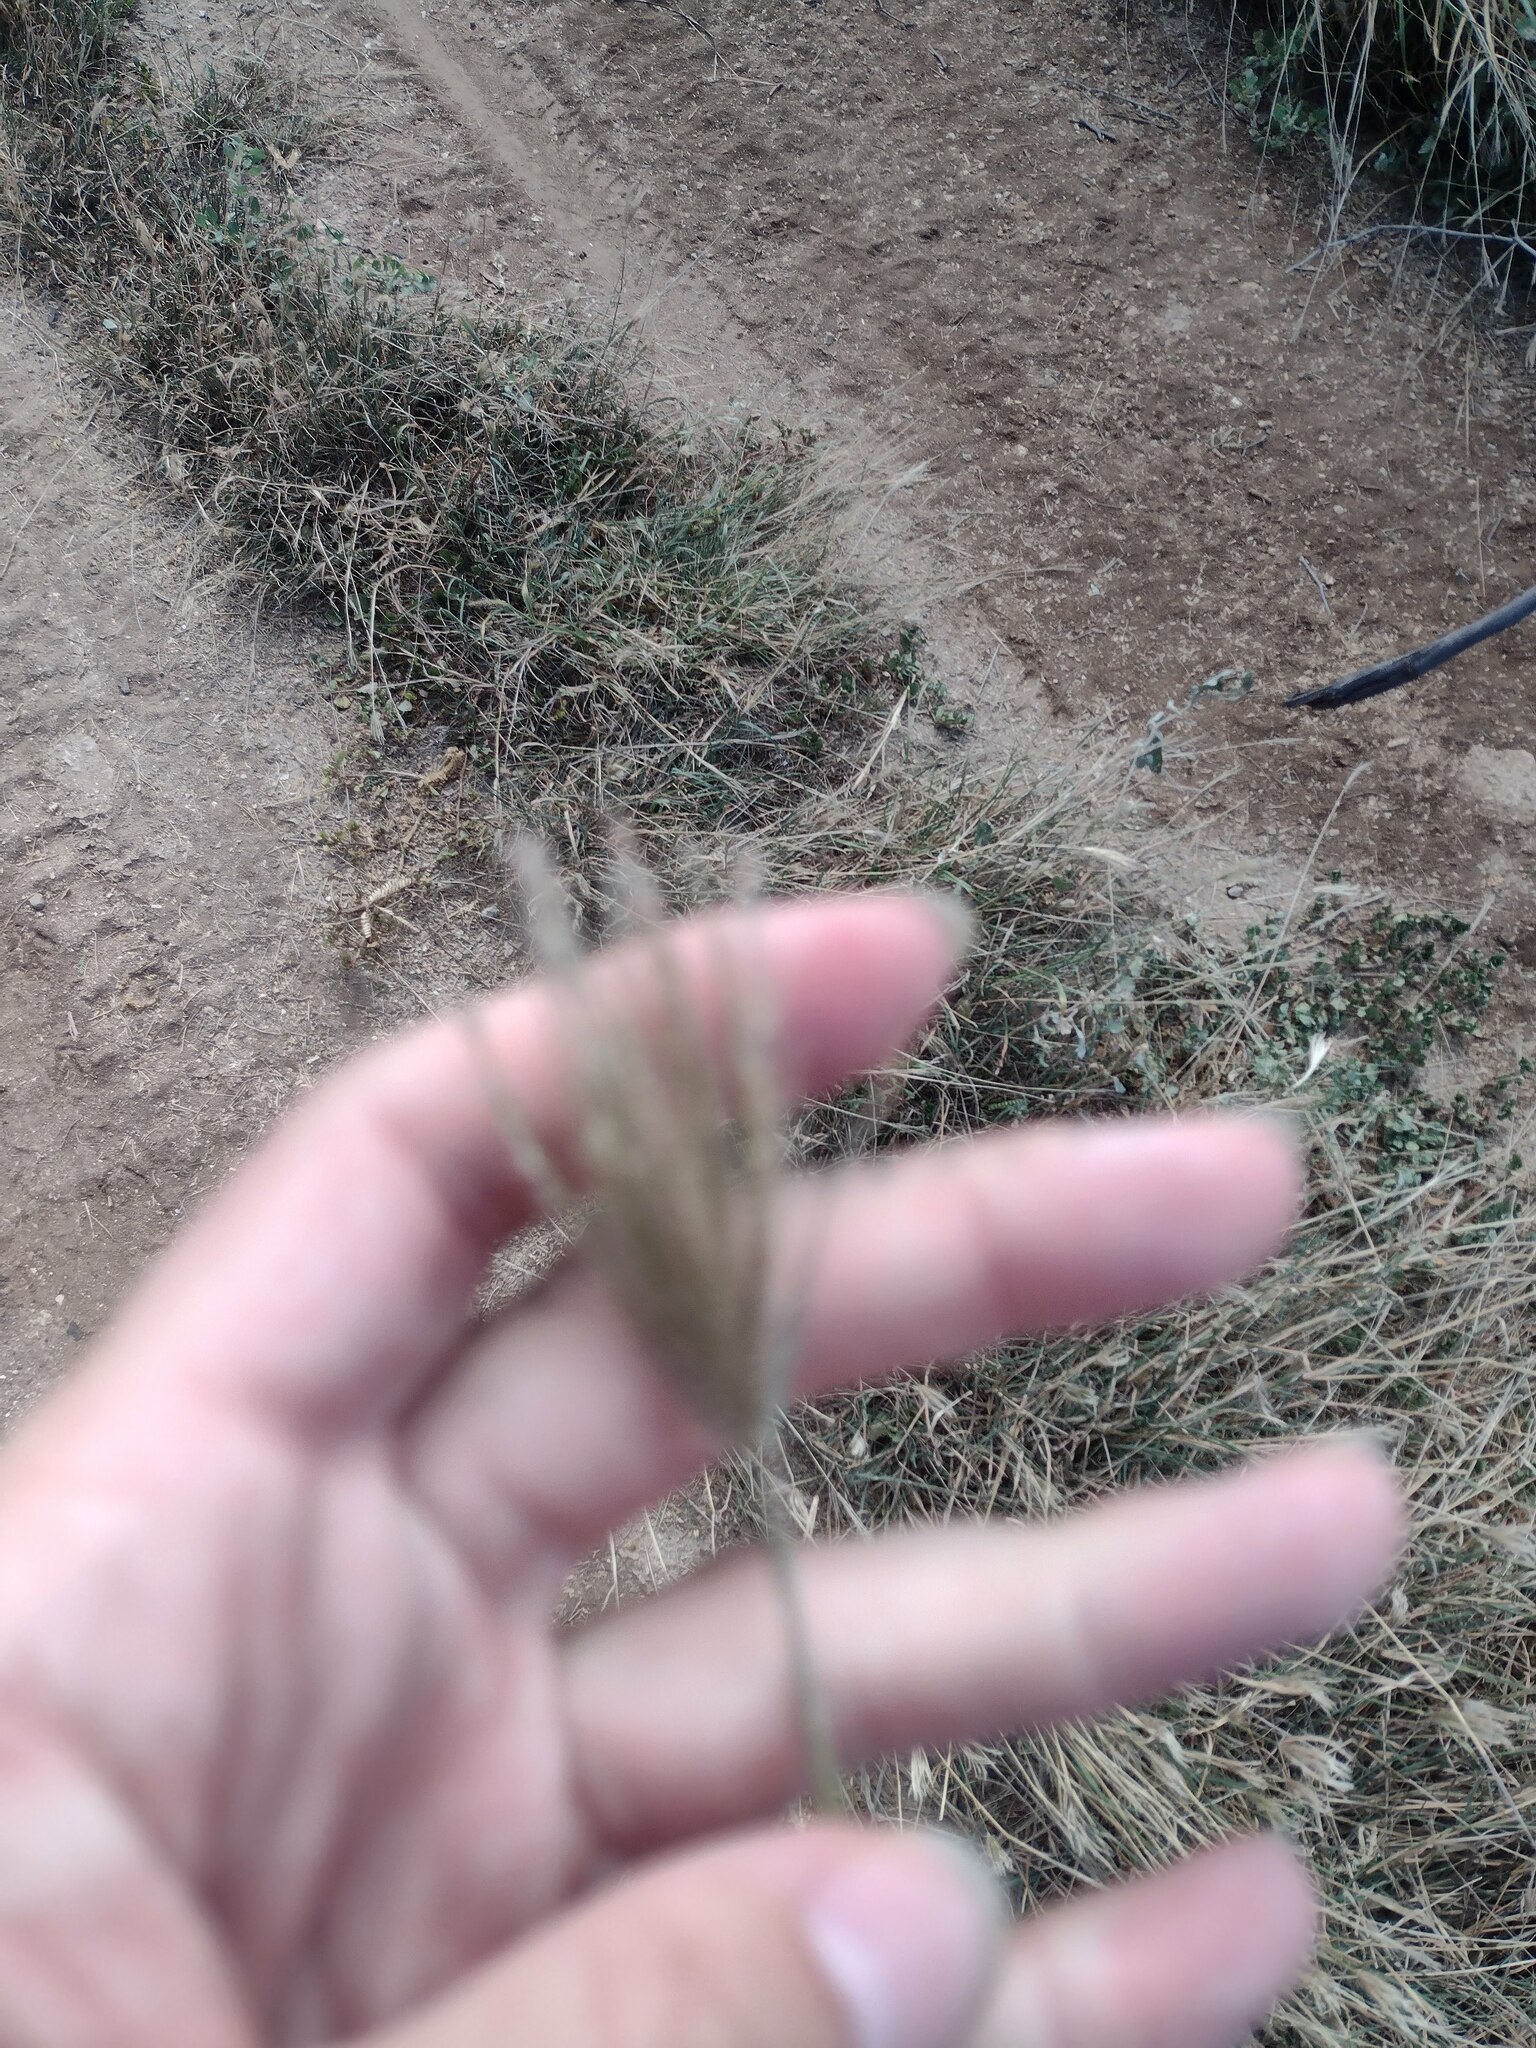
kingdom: Plantae
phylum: Tracheophyta
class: Liliopsida
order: Poales
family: Poaceae
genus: Chloris
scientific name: Chloris barbata
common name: Swollen fingergrass
